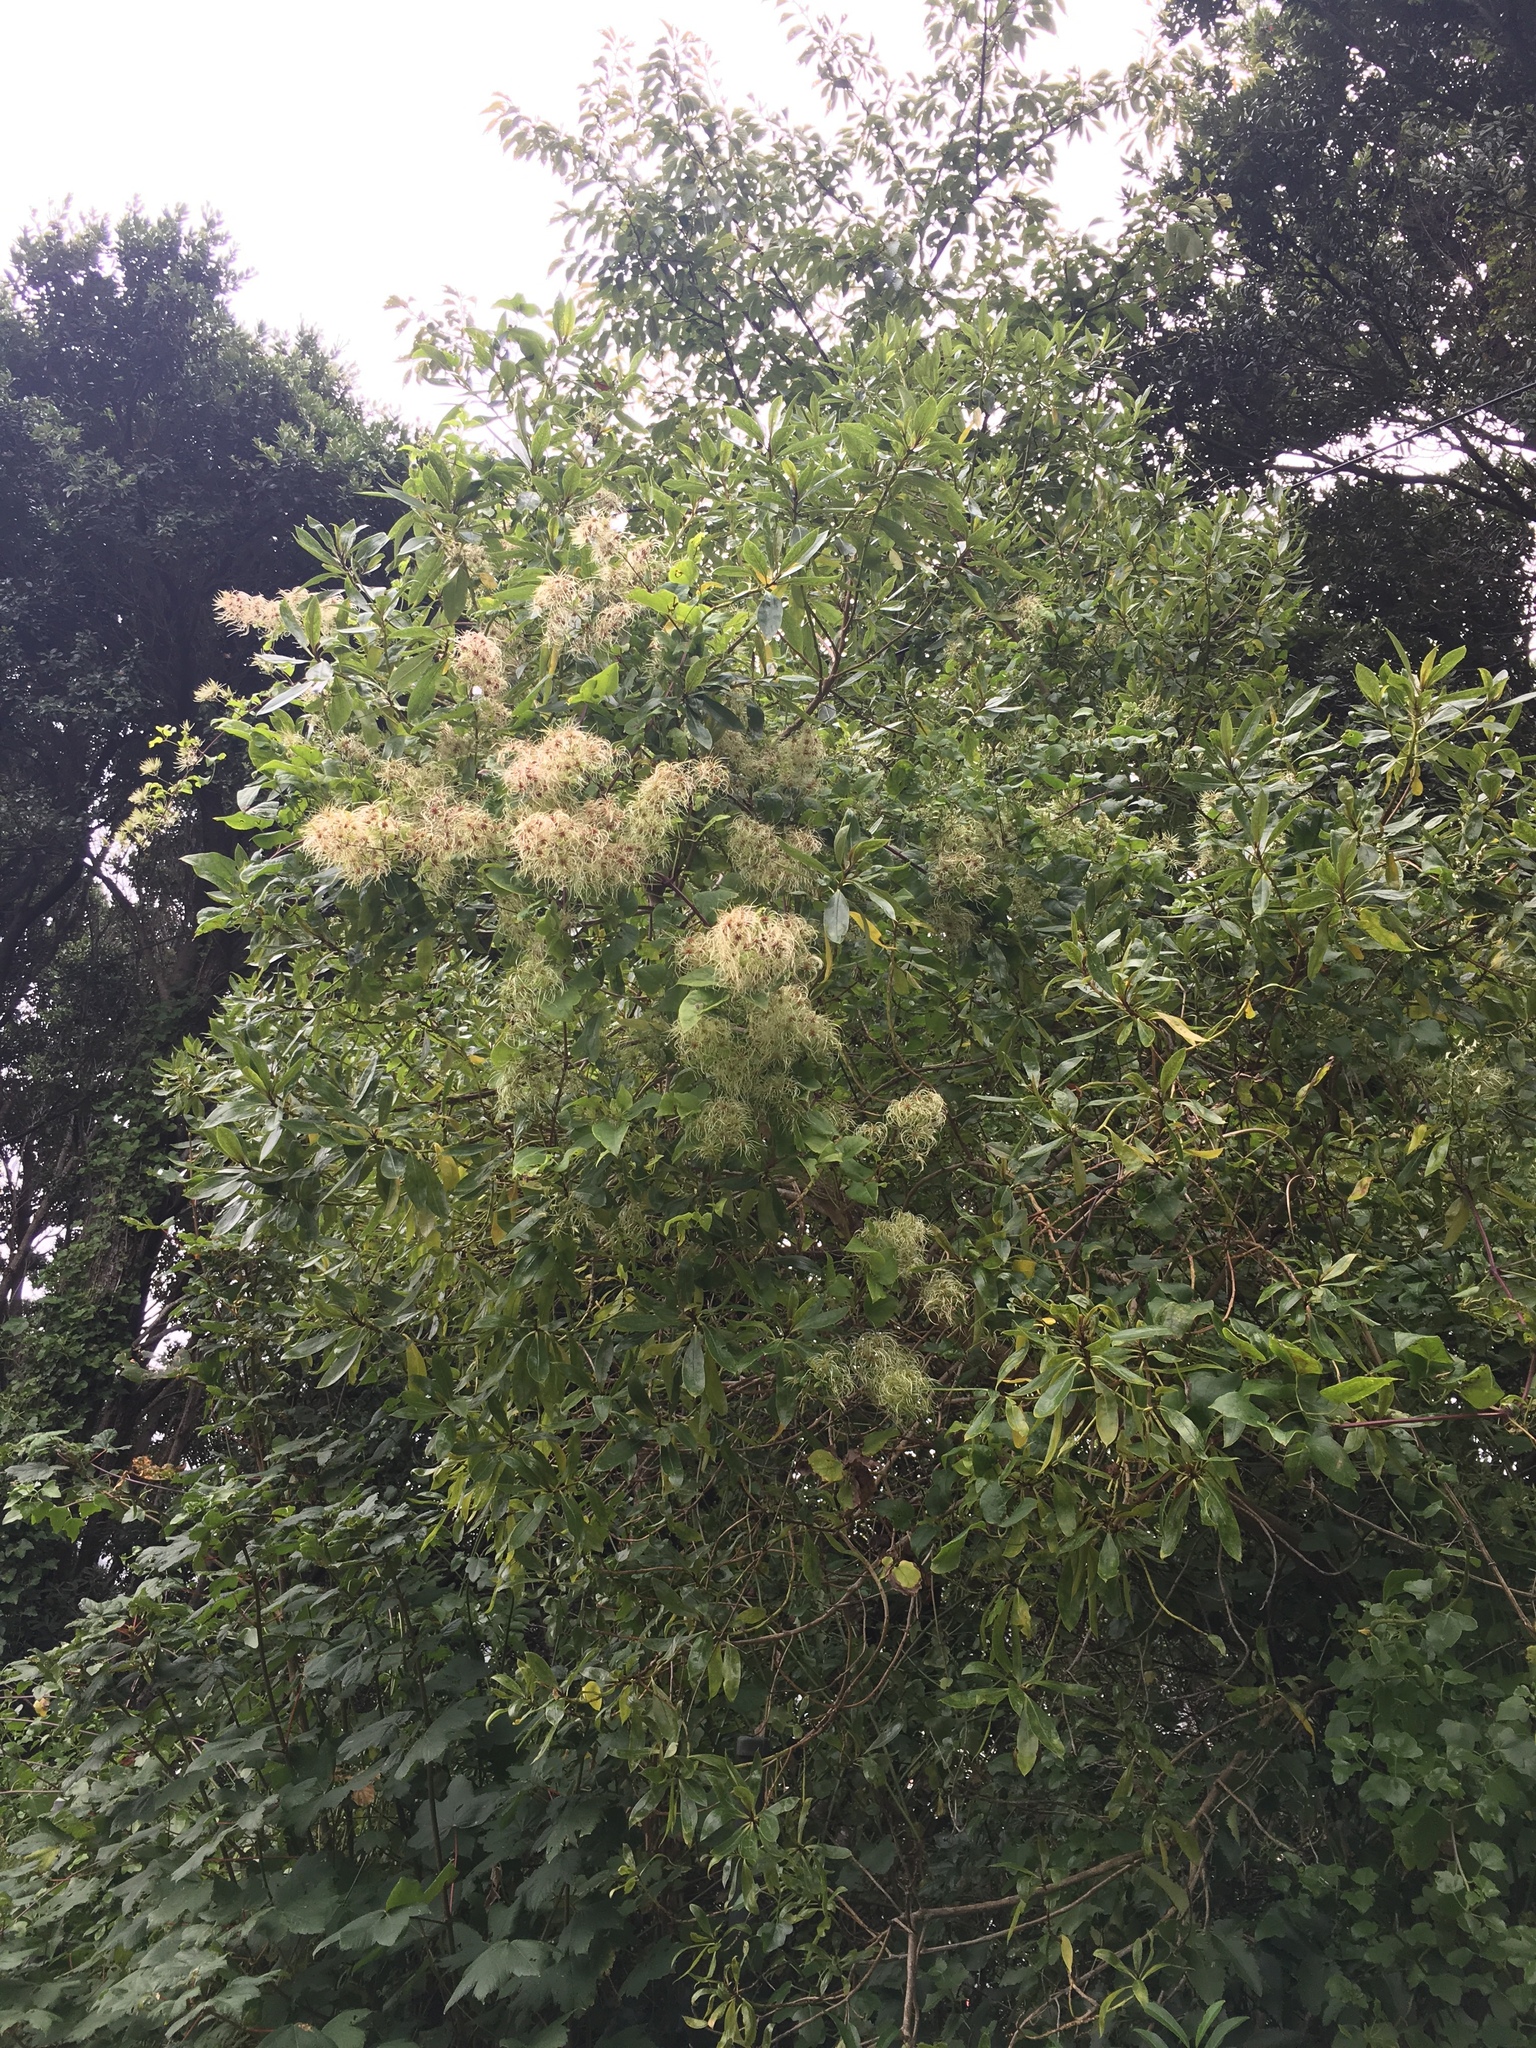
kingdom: Plantae
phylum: Tracheophyta
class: Magnoliopsida
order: Ranunculales
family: Ranunculaceae
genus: Clematis
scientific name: Clematis vitalba
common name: Evergreen clematis
